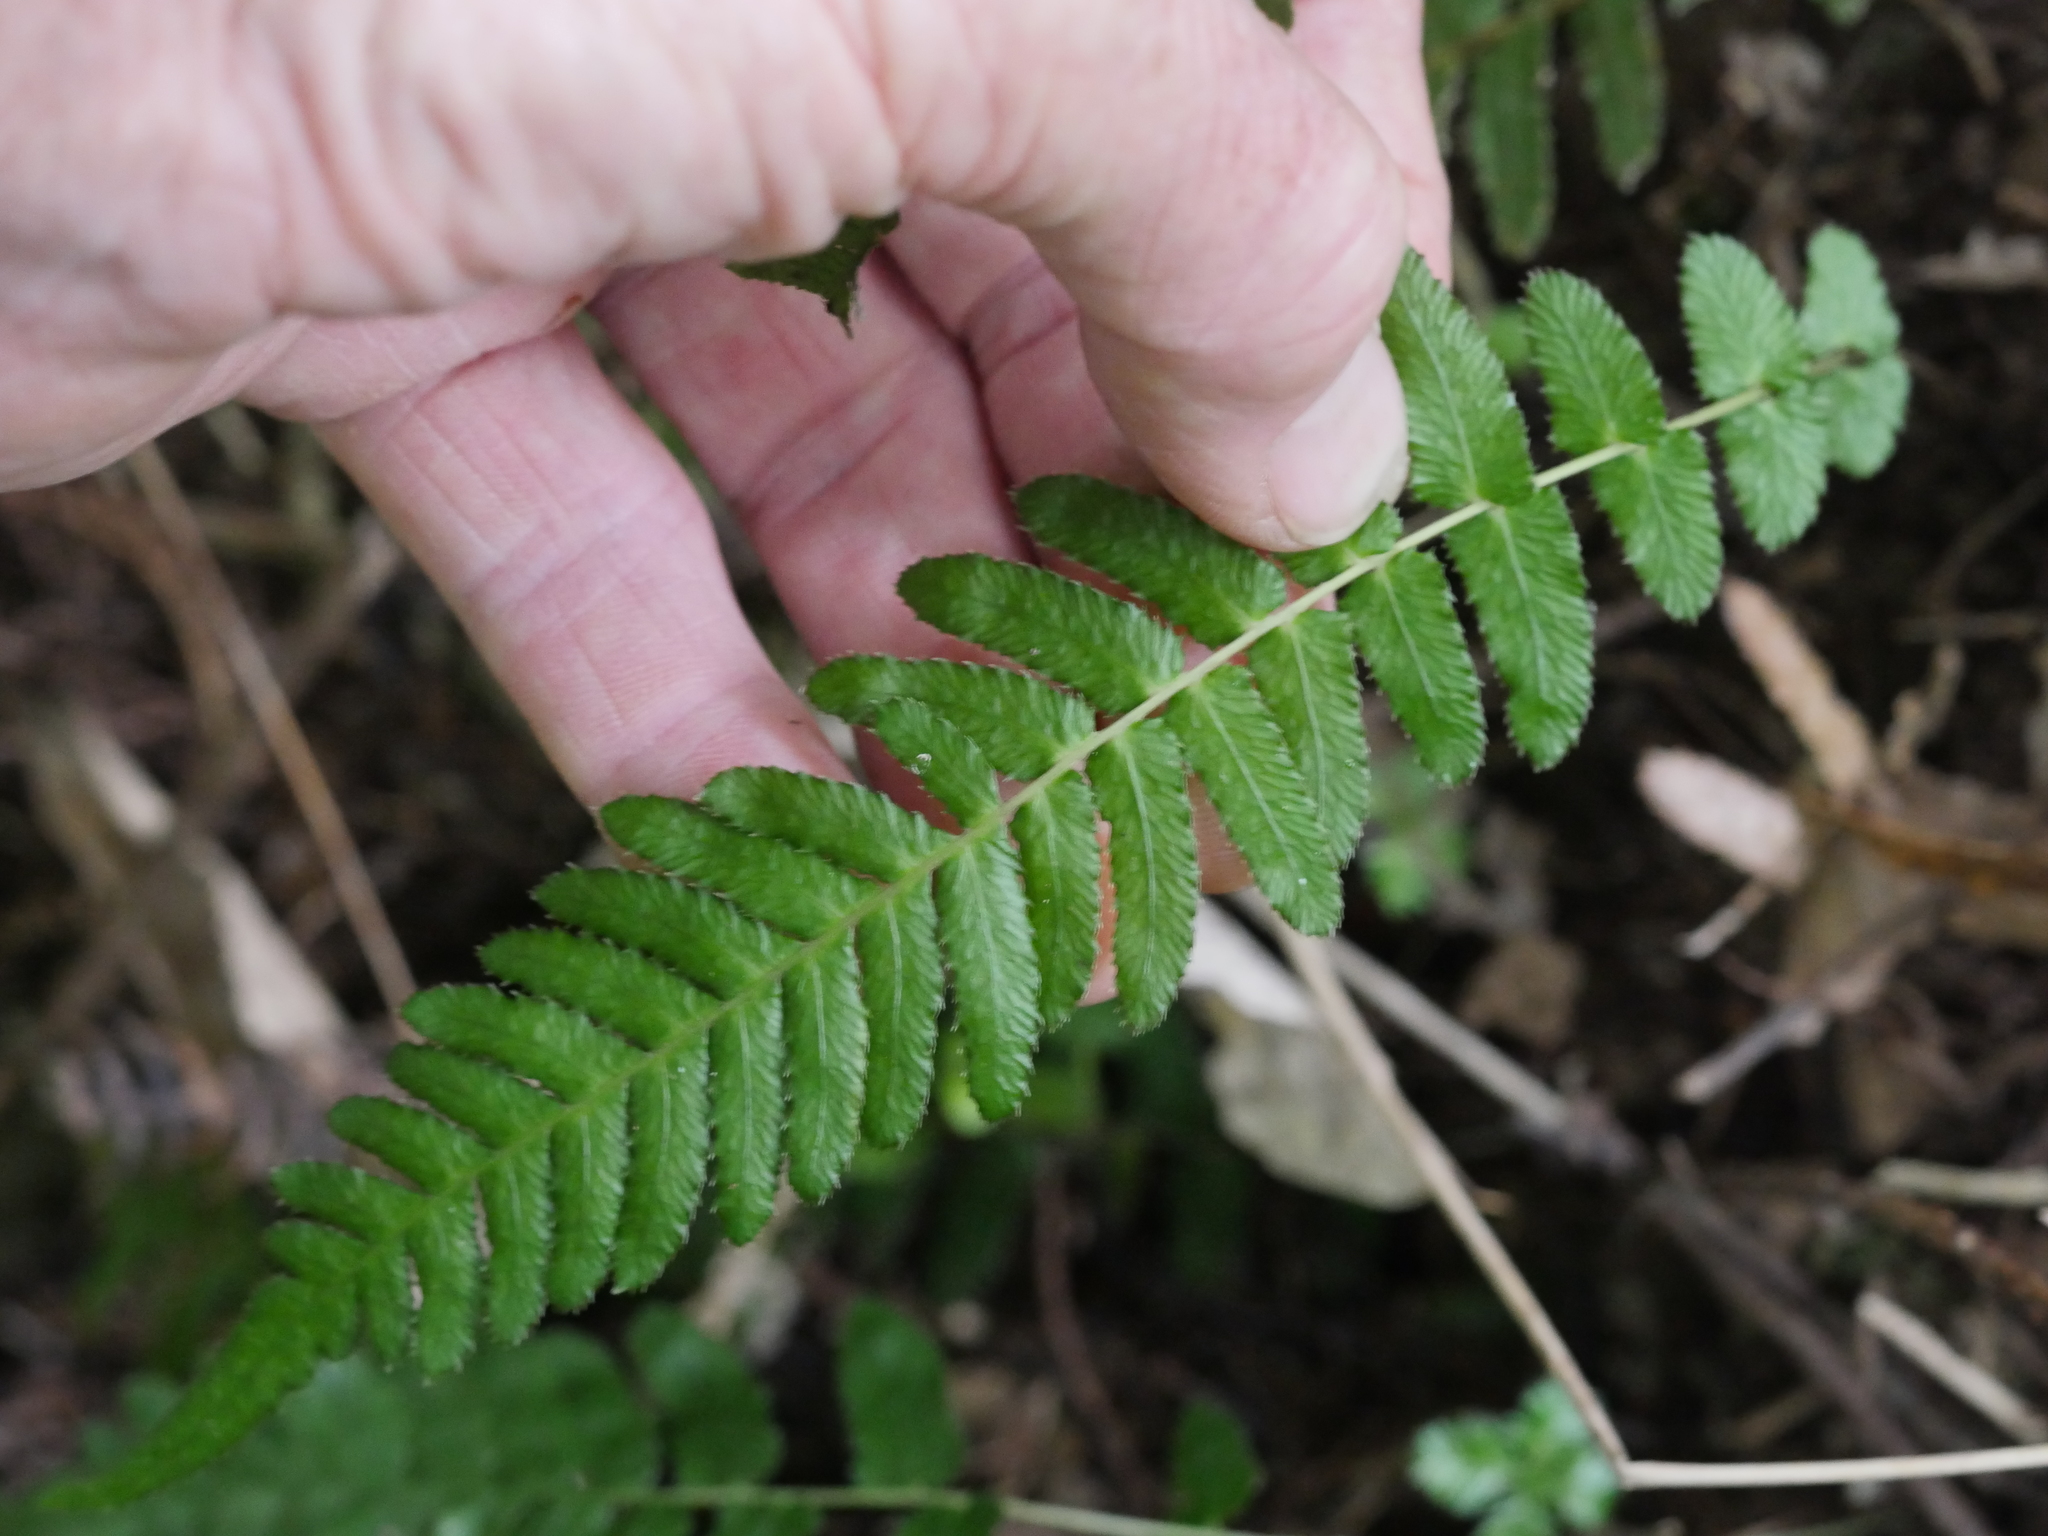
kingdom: Plantae
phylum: Tracheophyta
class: Polypodiopsida
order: Polypodiales
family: Blechnaceae
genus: Doodia
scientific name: Doodia australis
